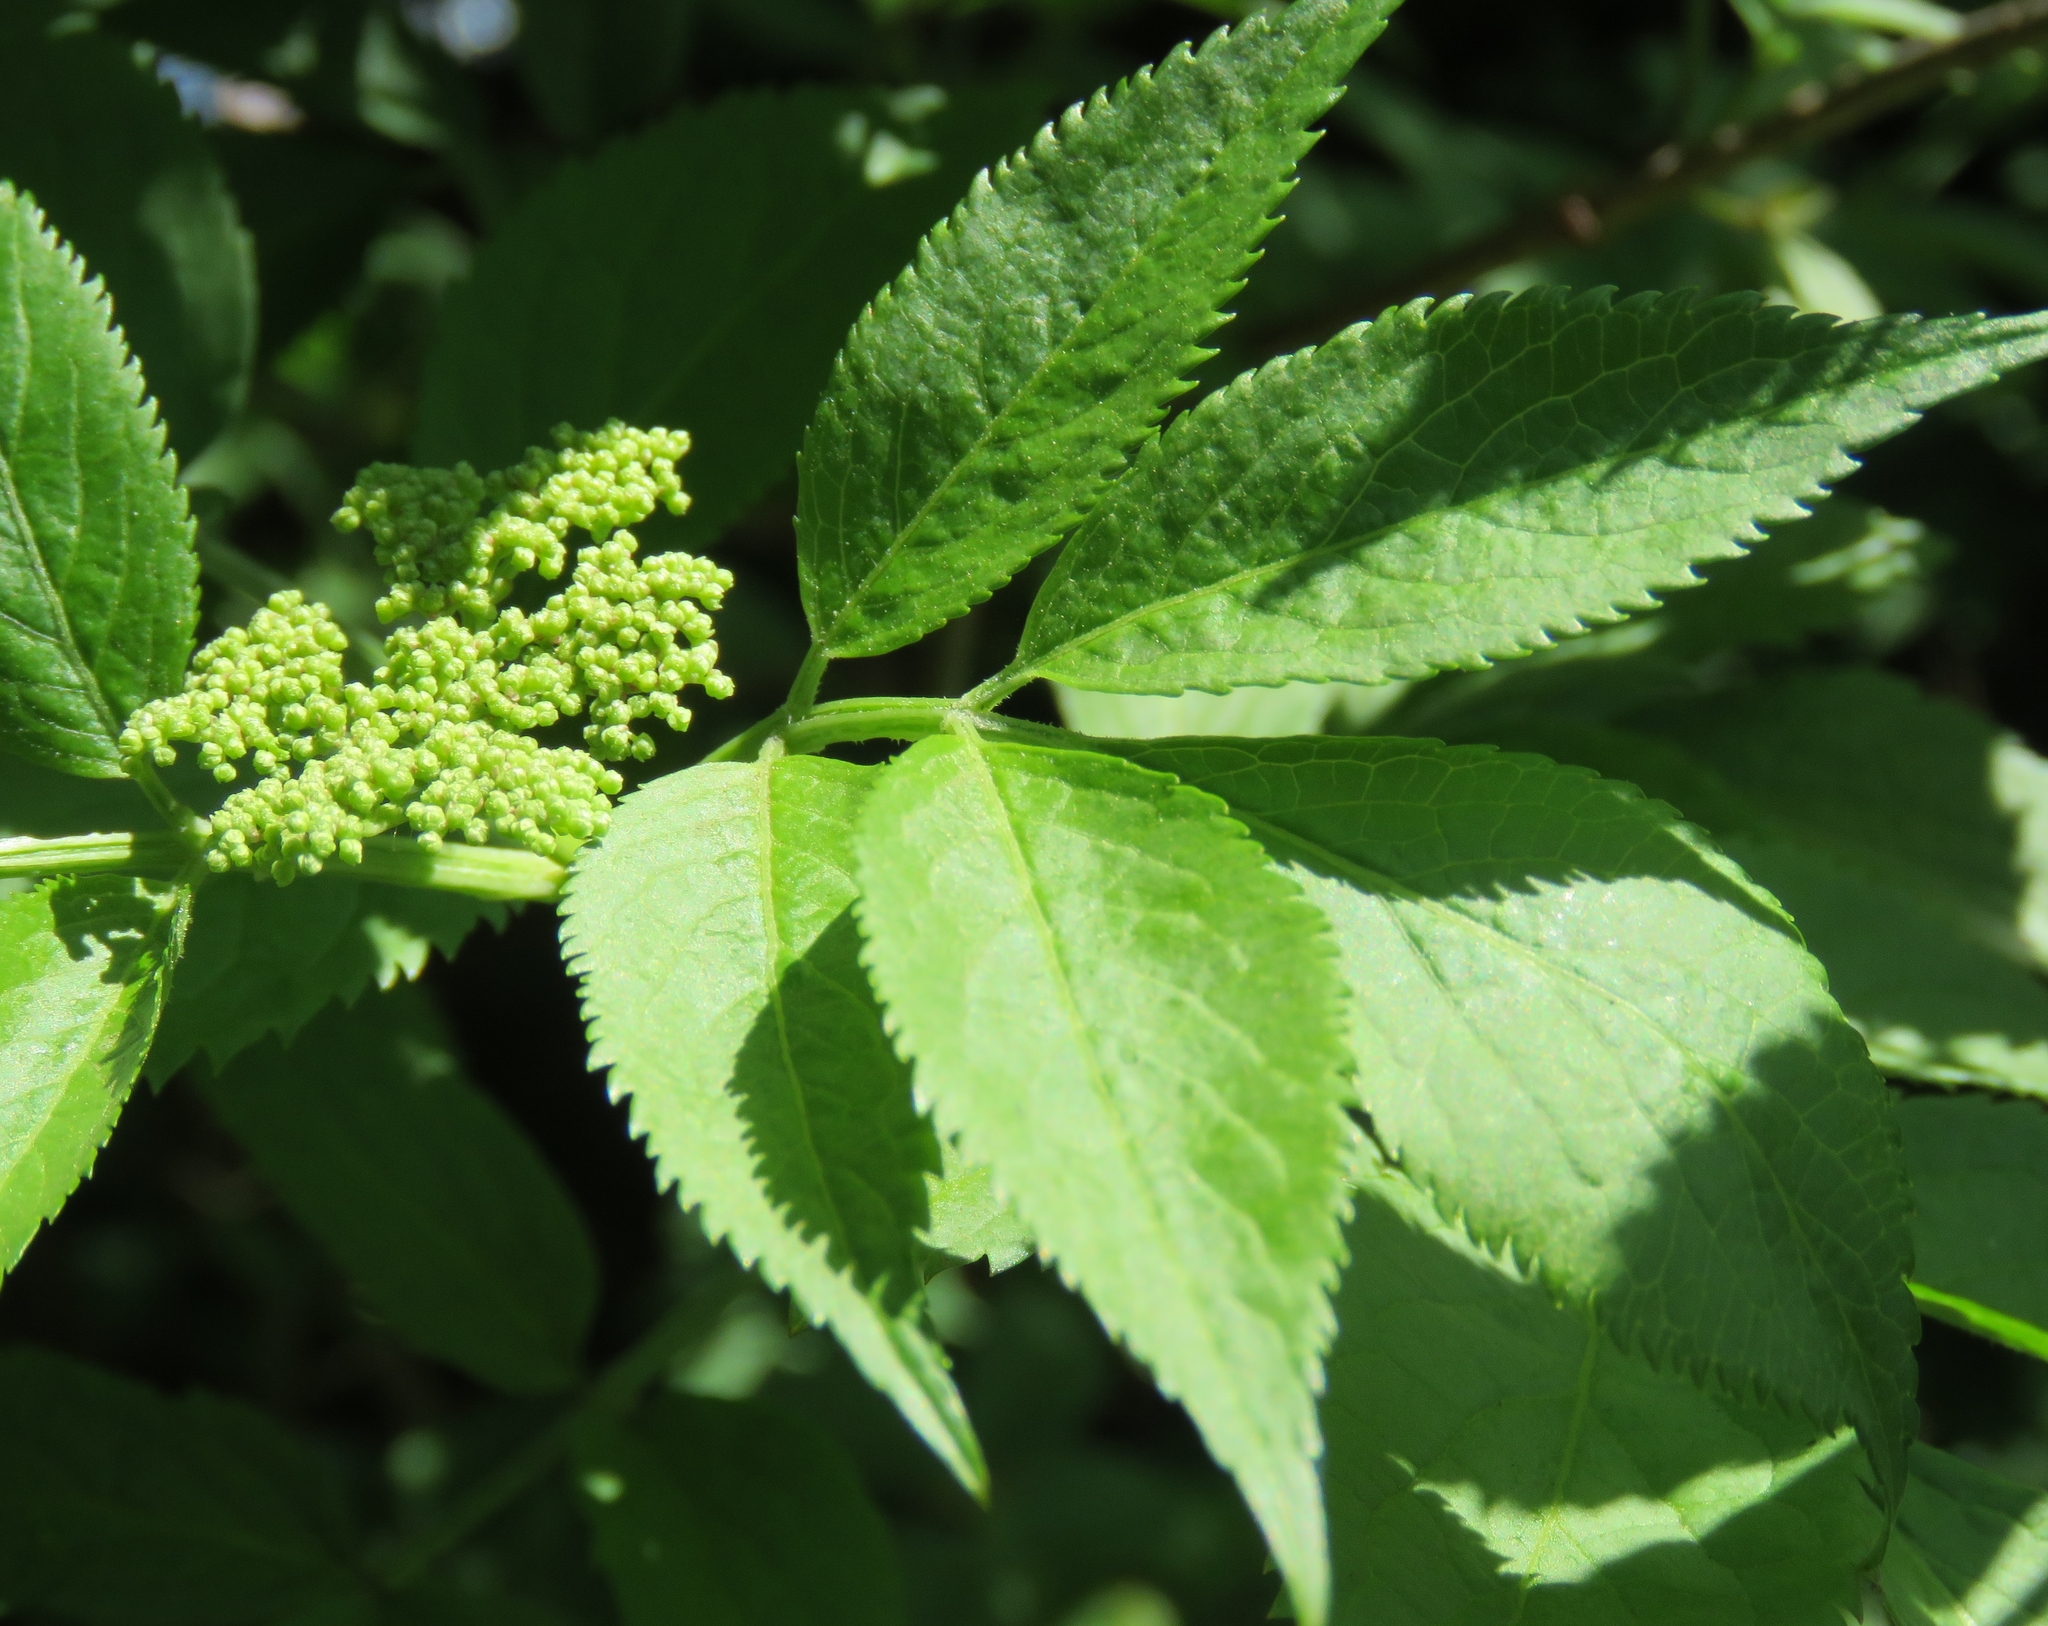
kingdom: Plantae
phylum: Tracheophyta
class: Magnoliopsida
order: Dipsacales
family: Viburnaceae
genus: Sambucus
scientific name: Sambucus nigra
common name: Elder
